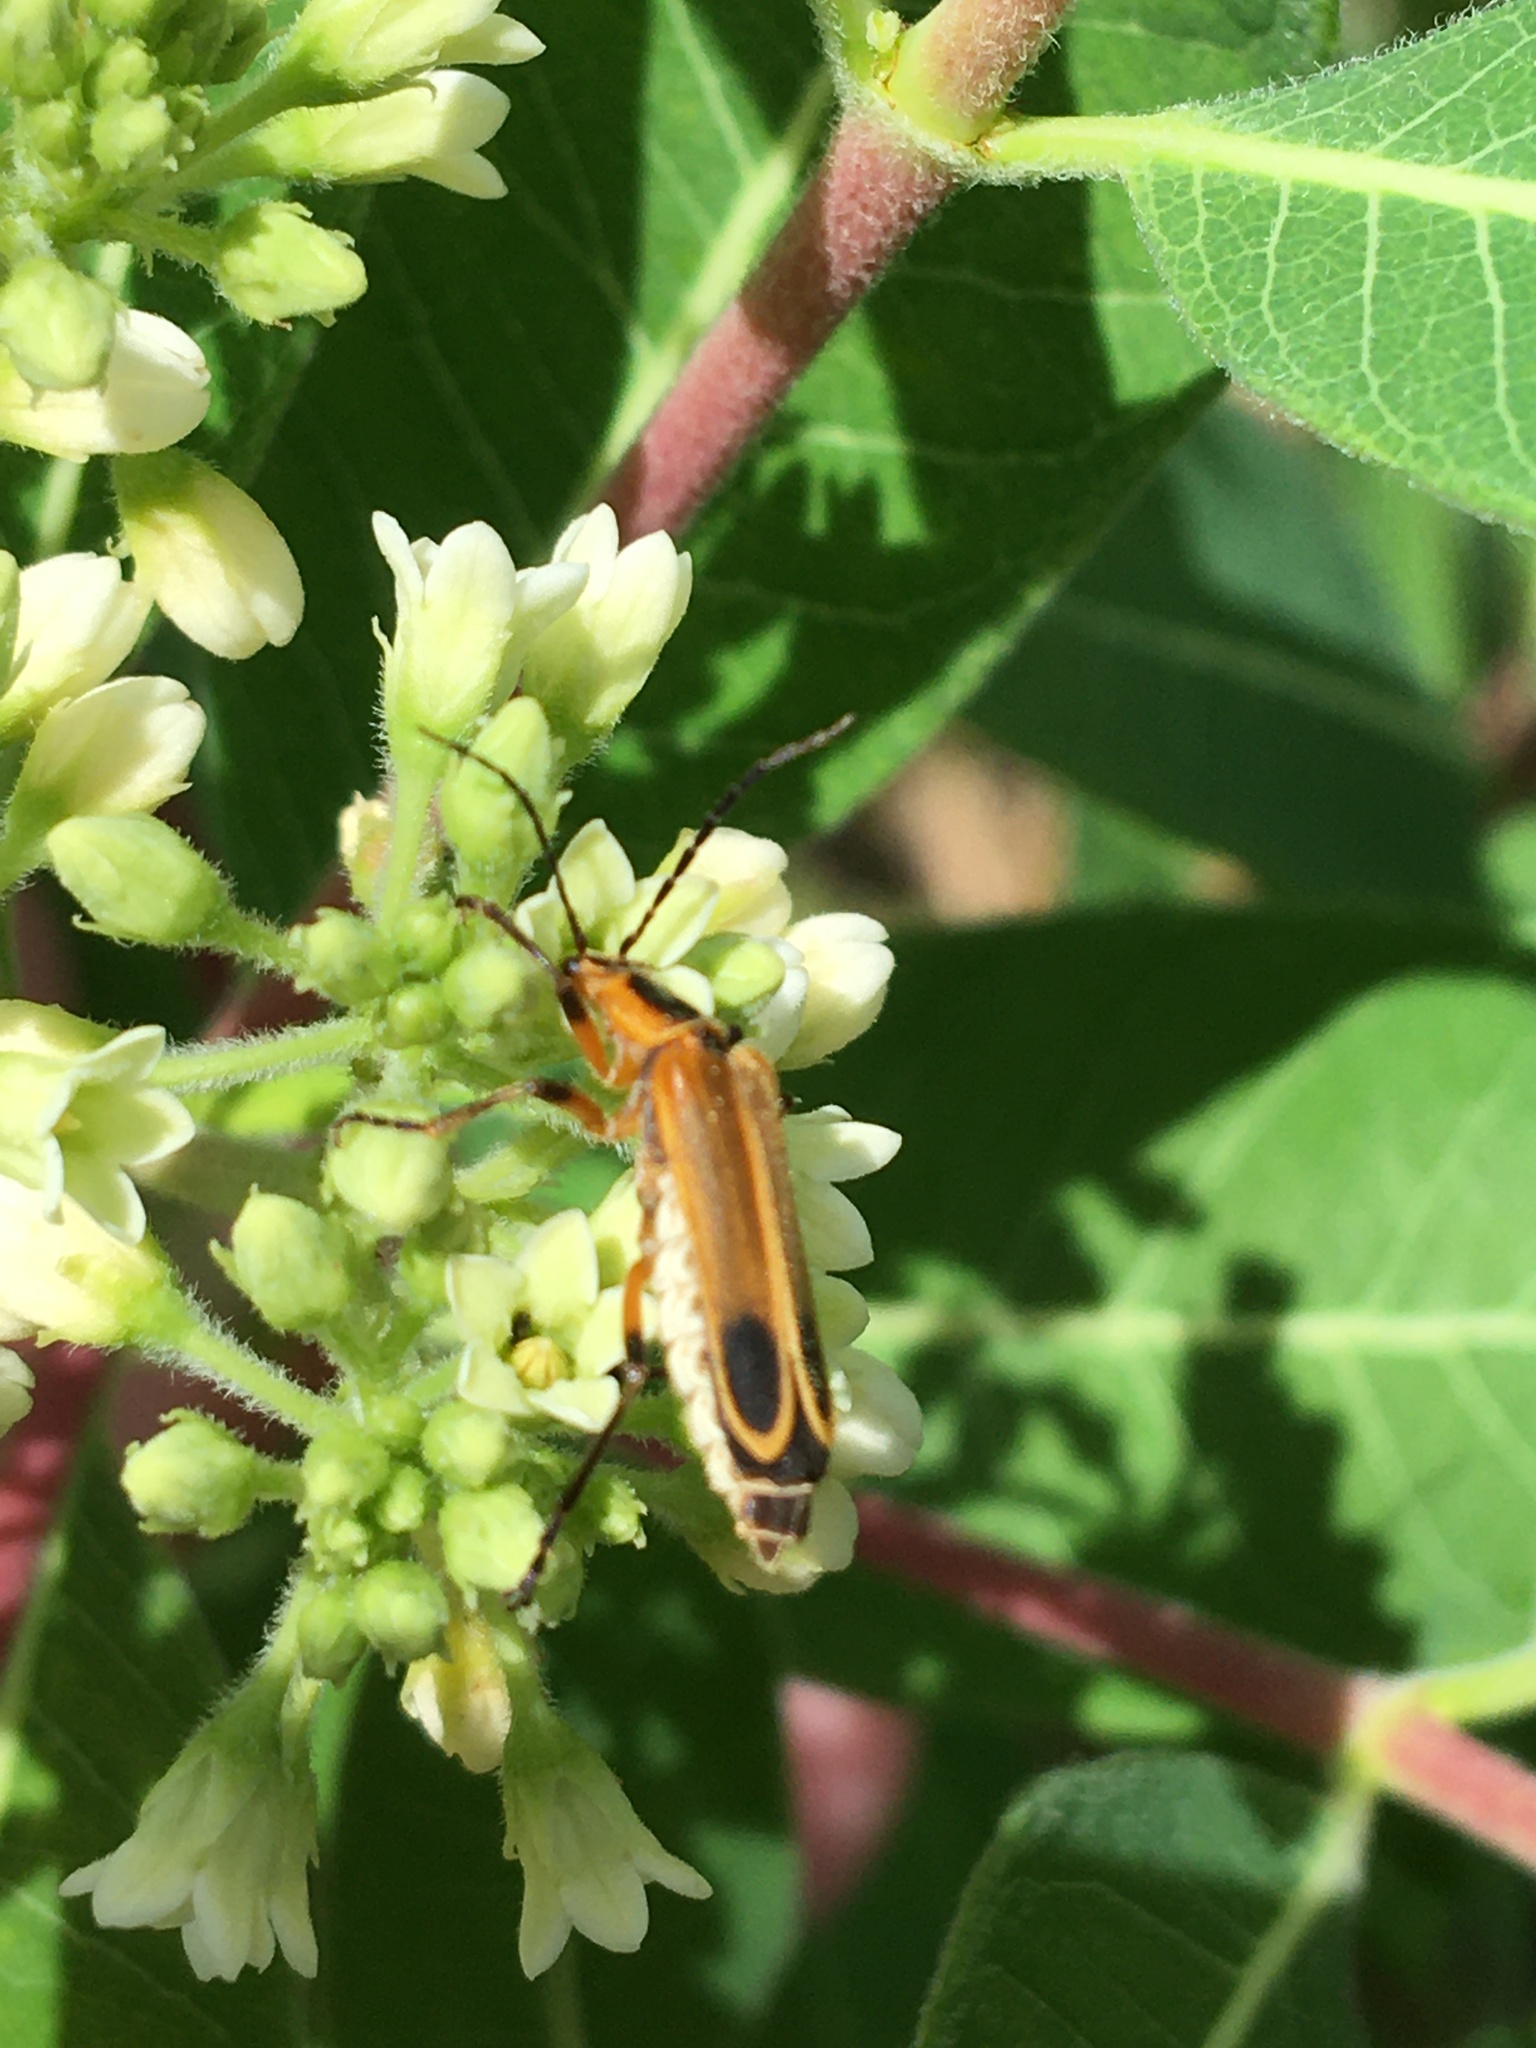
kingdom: Animalia
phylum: Arthropoda
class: Insecta
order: Coleoptera
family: Cantharidae
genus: Chauliognathus
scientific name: Chauliognathus marginatus
